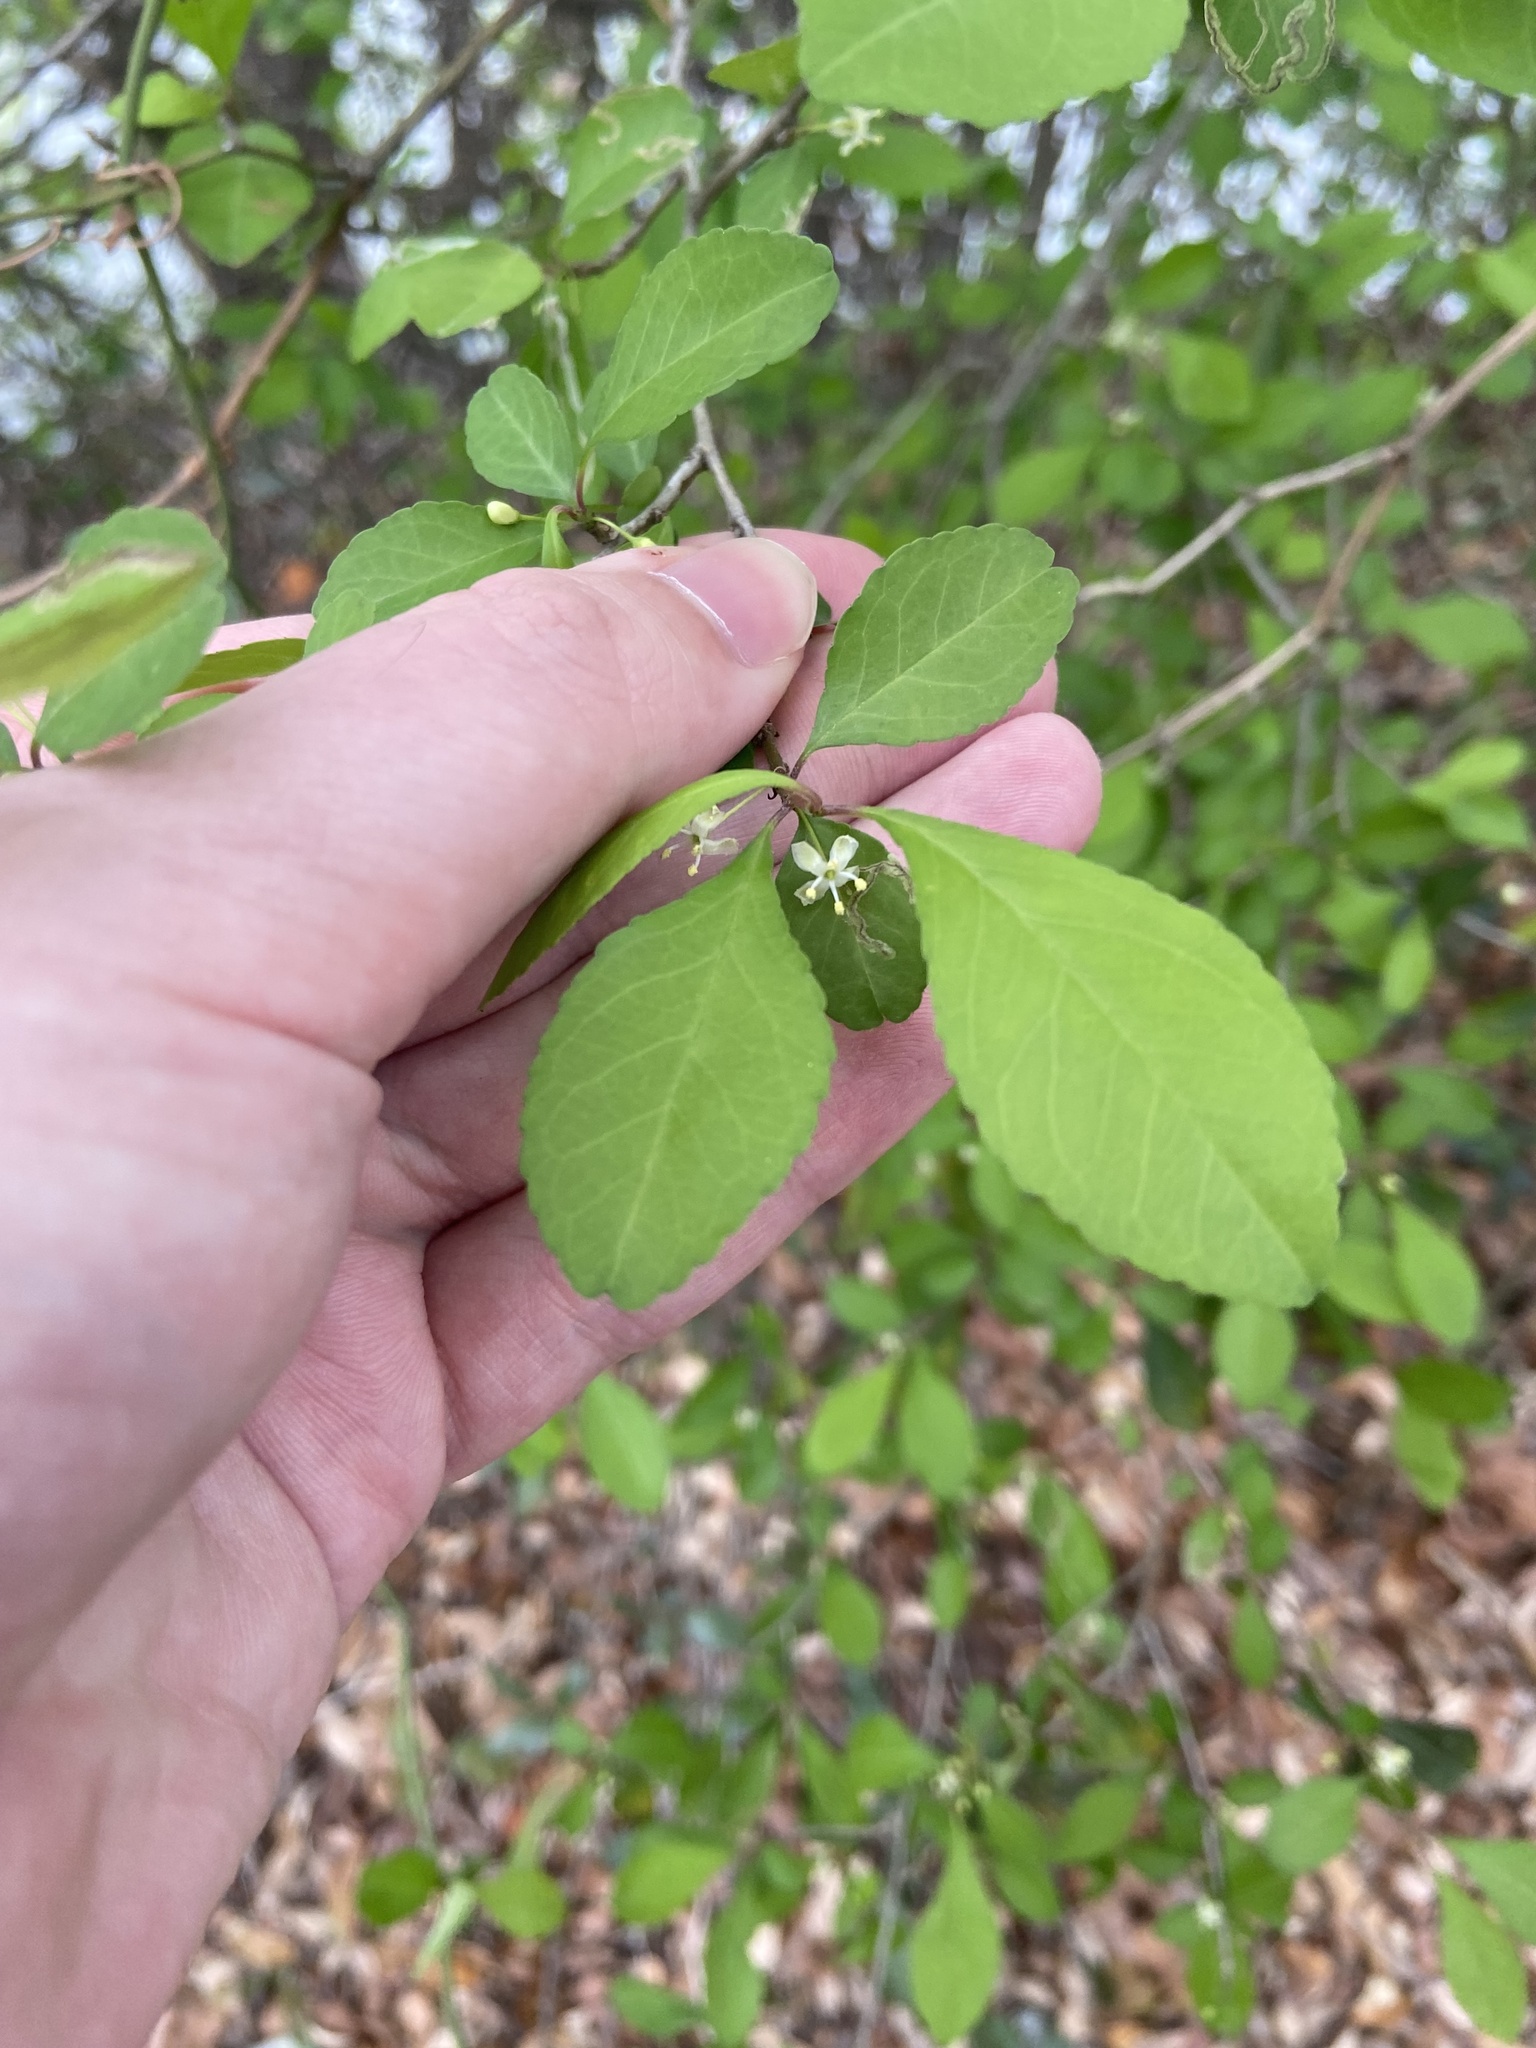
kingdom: Plantae
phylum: Tracheophyta
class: Magnoliopsida
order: Aquifoliales
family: Aquifoliaceae
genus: Ilex
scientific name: Ilex decidua
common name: Possum-haw
